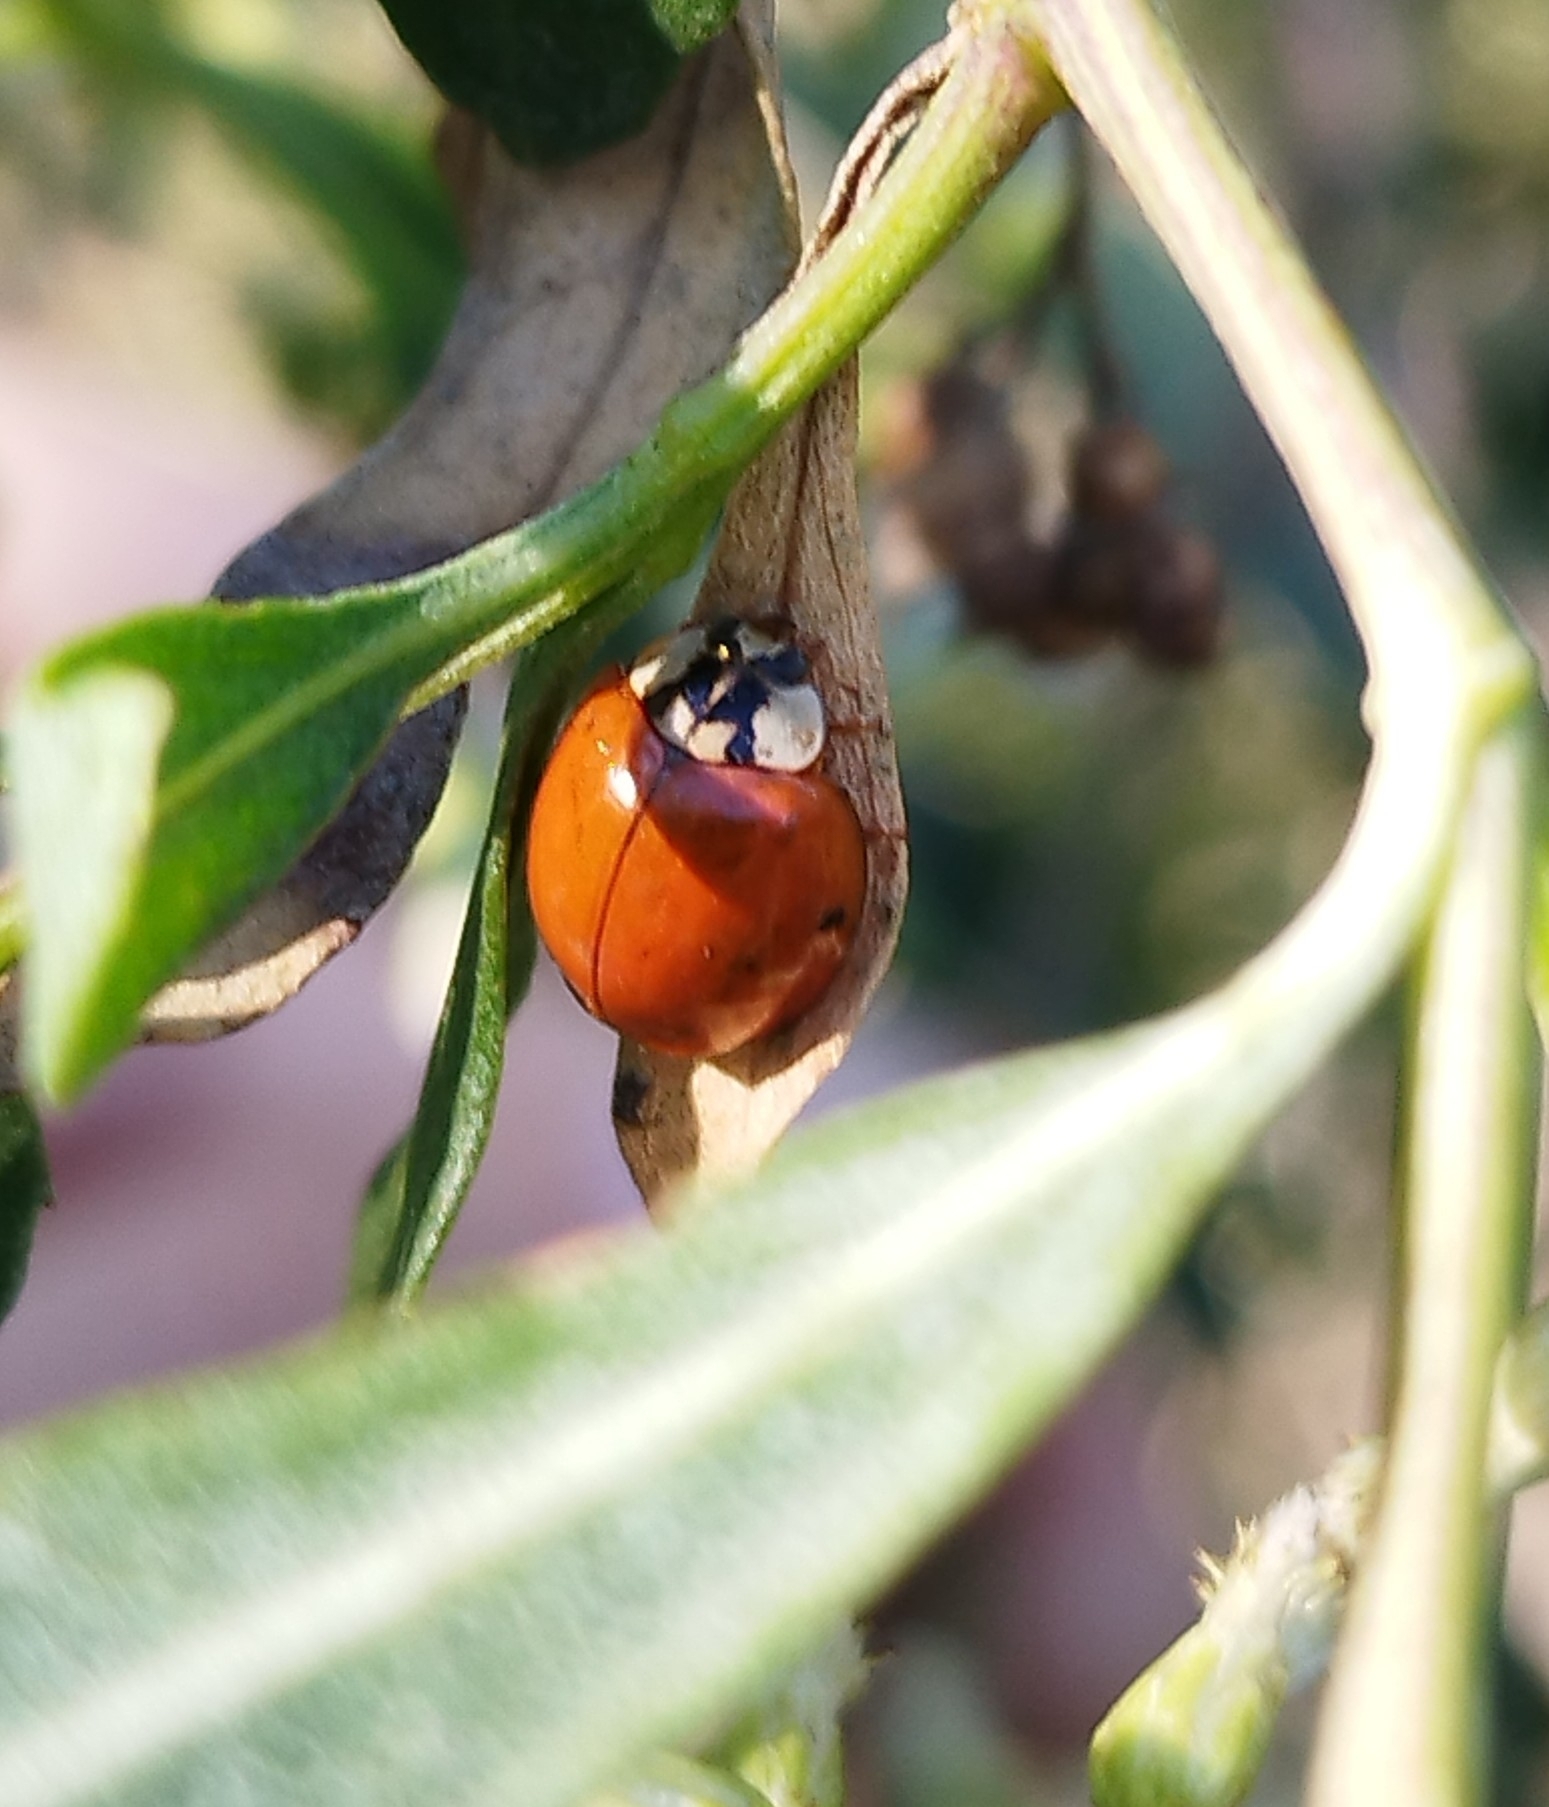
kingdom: Animalia
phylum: Arthropoda
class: Insecta
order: Coleoptera
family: Coccinellidae
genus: Harmonia
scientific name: Harmonia axyridis
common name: Harlequin ladybird
